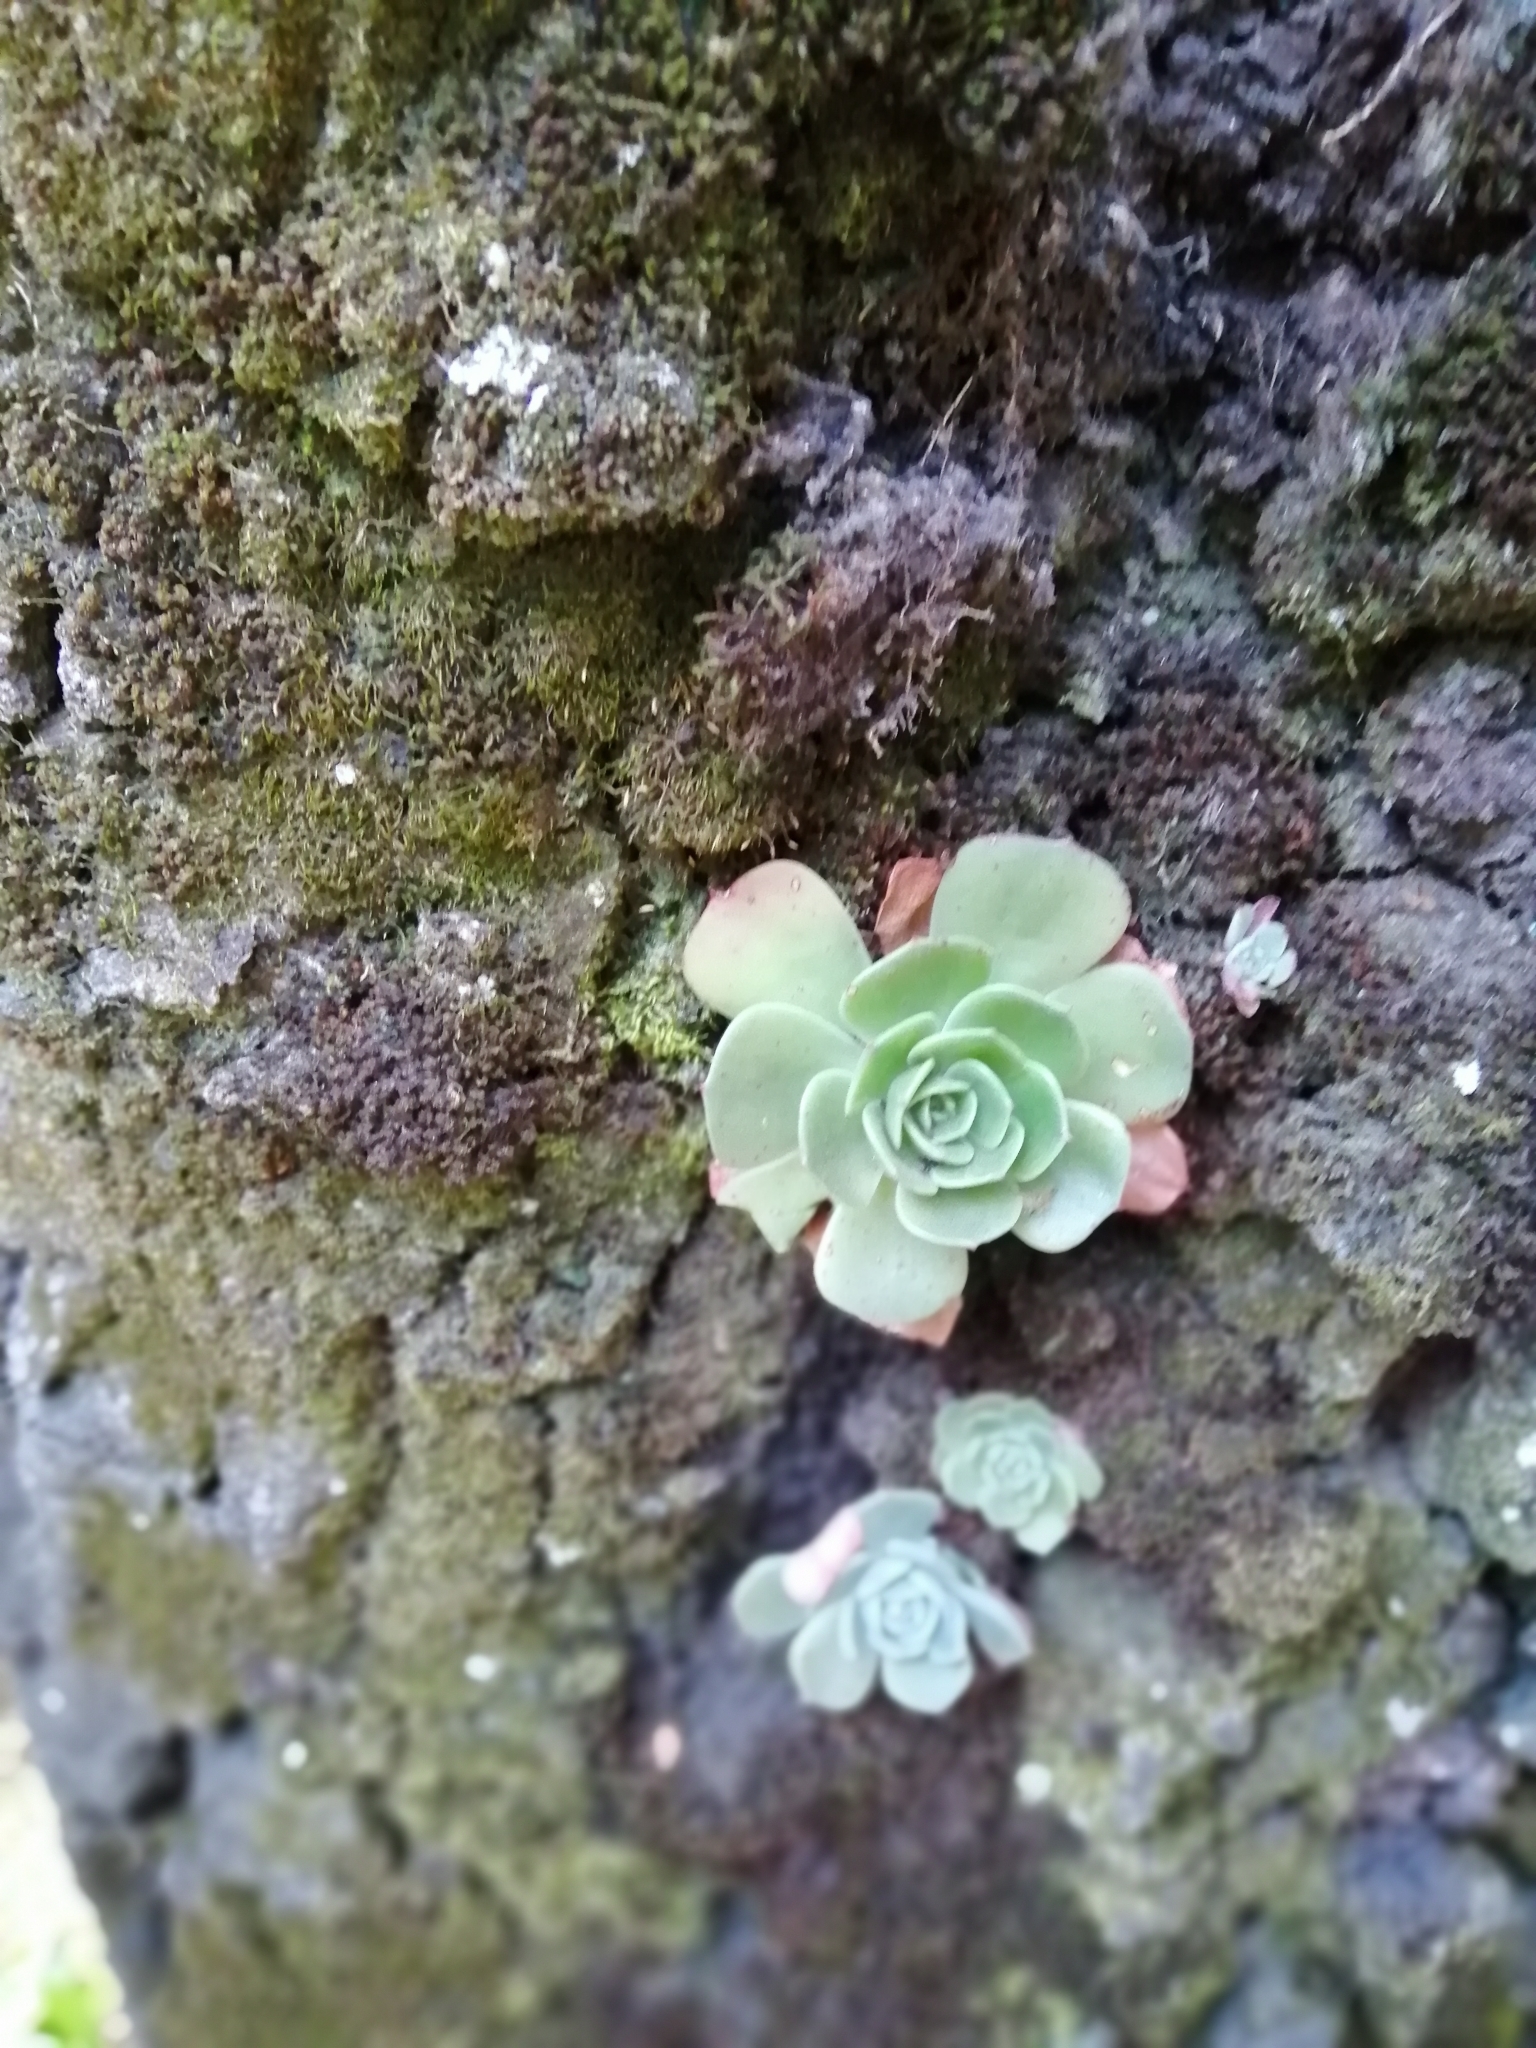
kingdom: Plantae
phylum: Tracheophyta
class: Magnoliopsida
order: Saxifragales
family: Crassulaceae
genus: Echeveria
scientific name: Echeveria secunda
